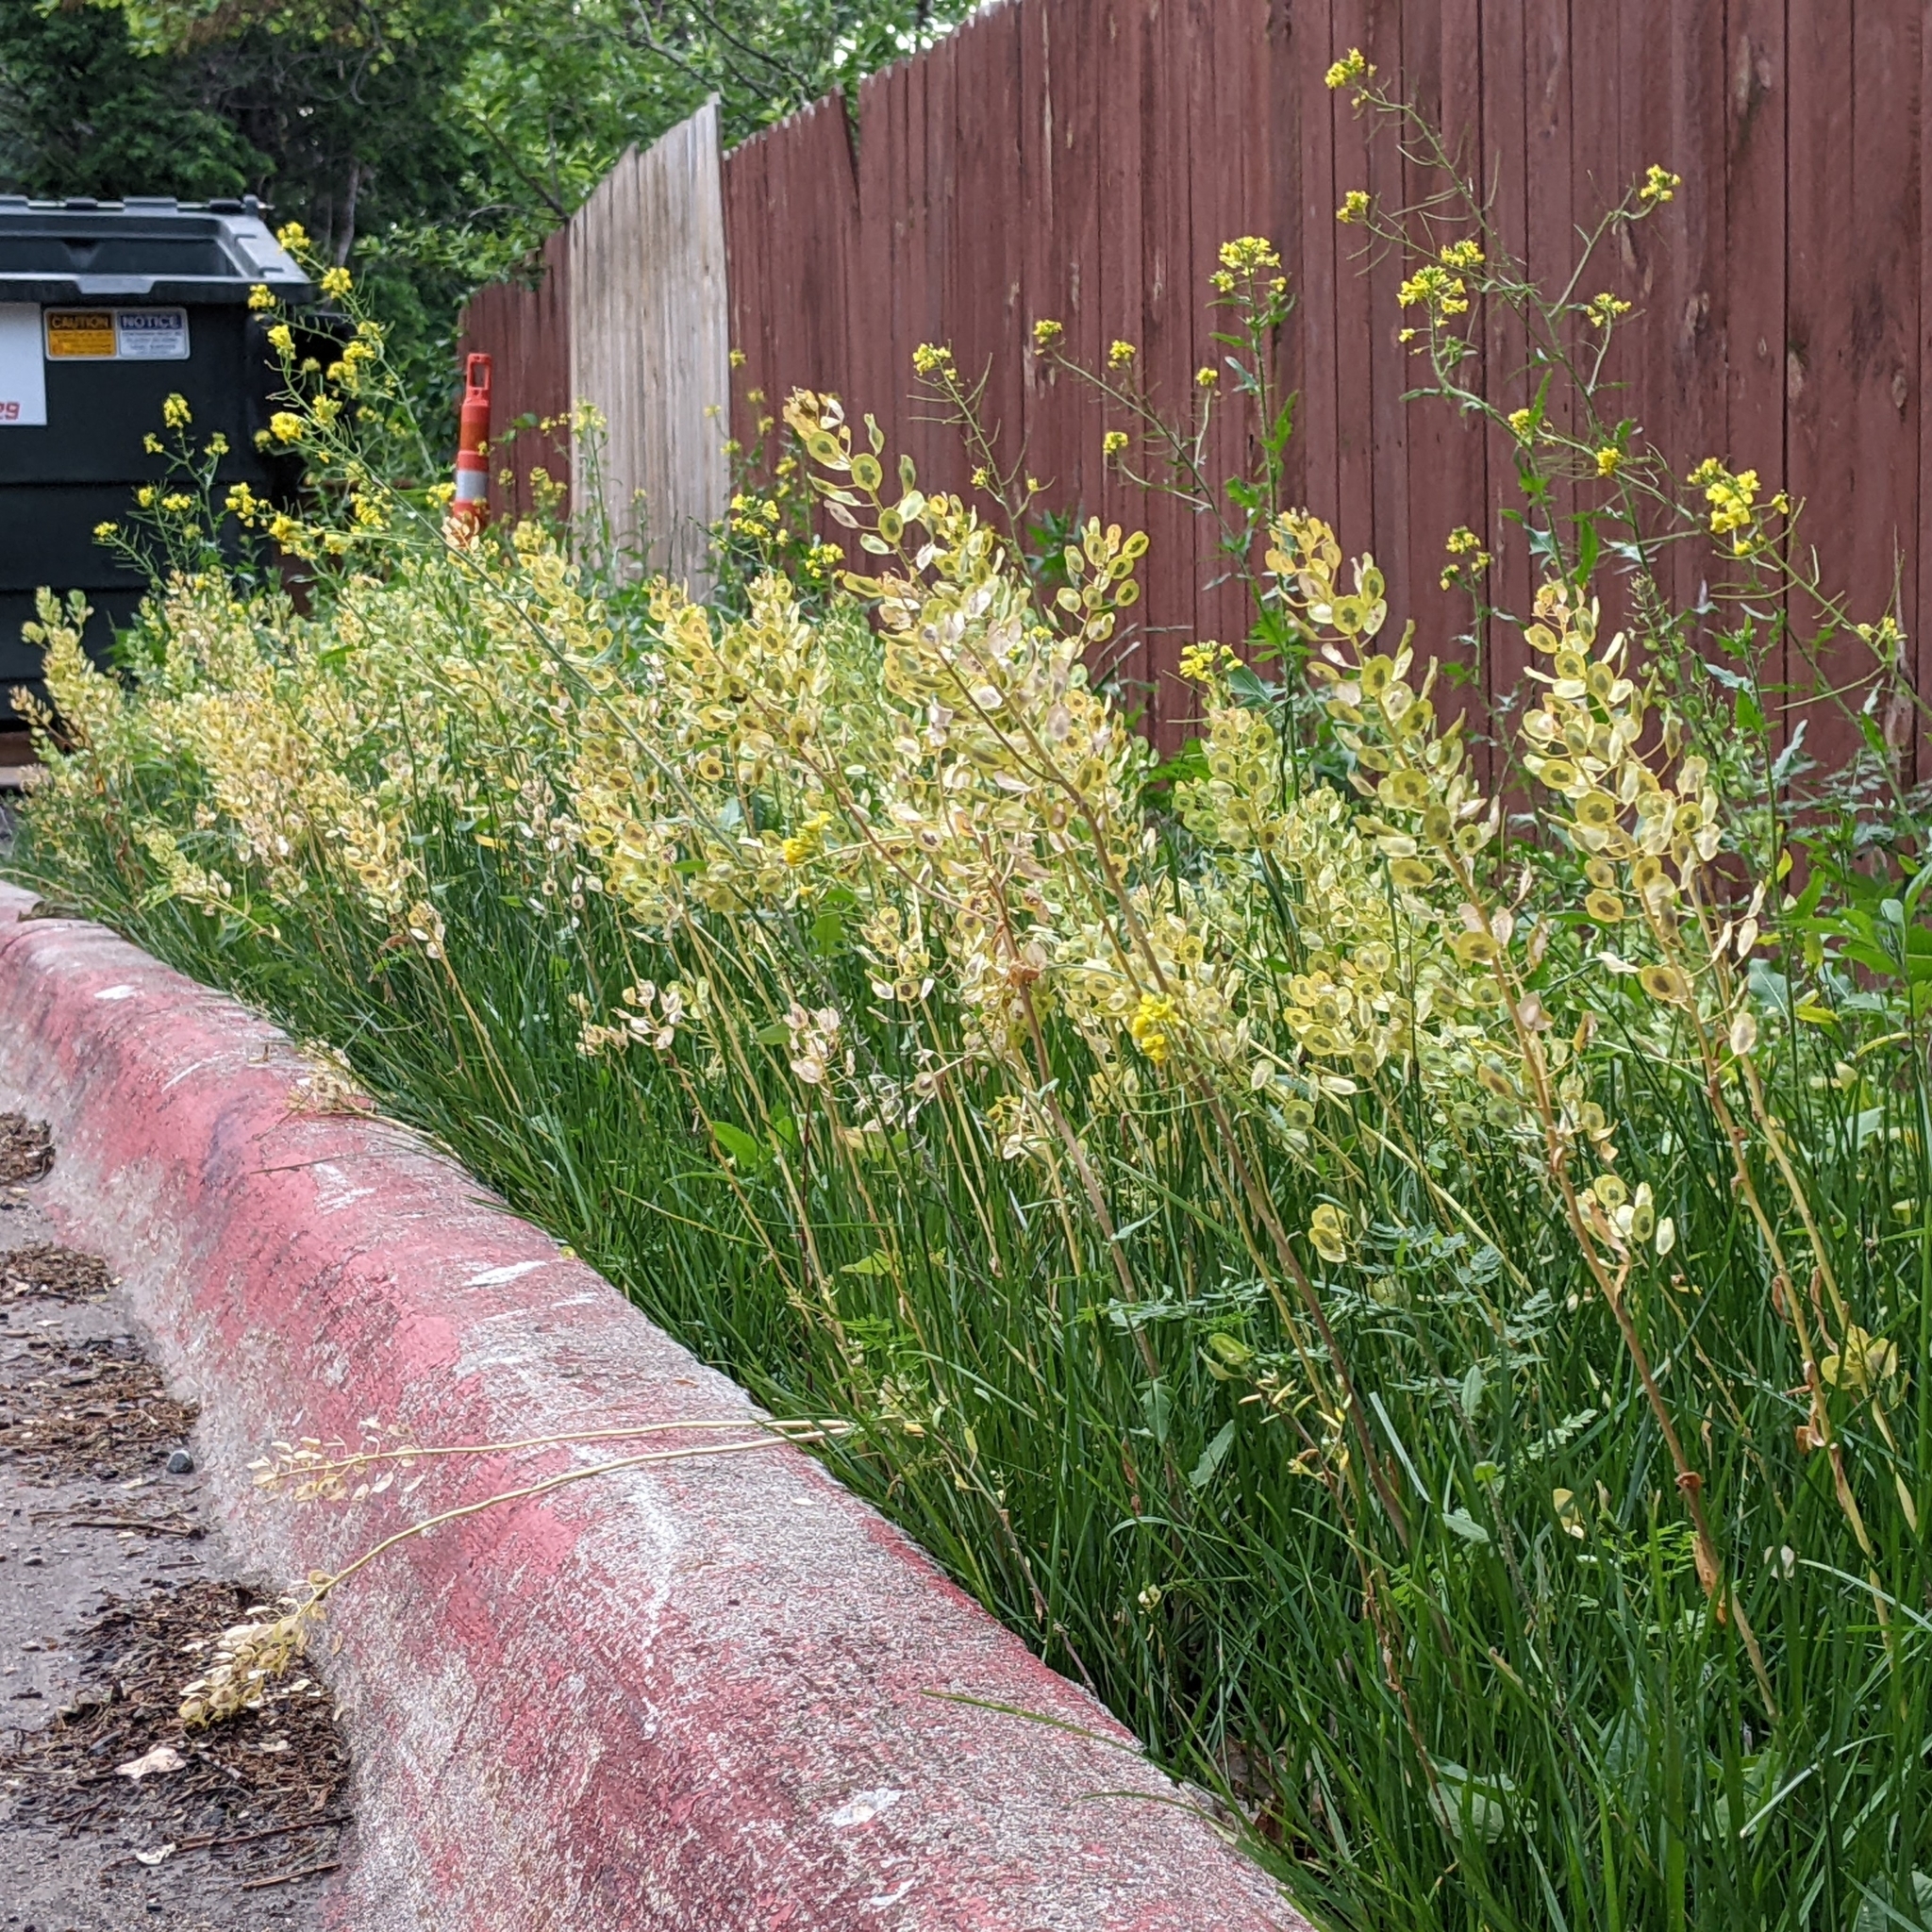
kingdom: Plantae
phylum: Tracheophyta
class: Magnoliopsida
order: Brassicales
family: Brassicaceae
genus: Thlaspi
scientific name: Thlaspi arvense
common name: Field pennycress
